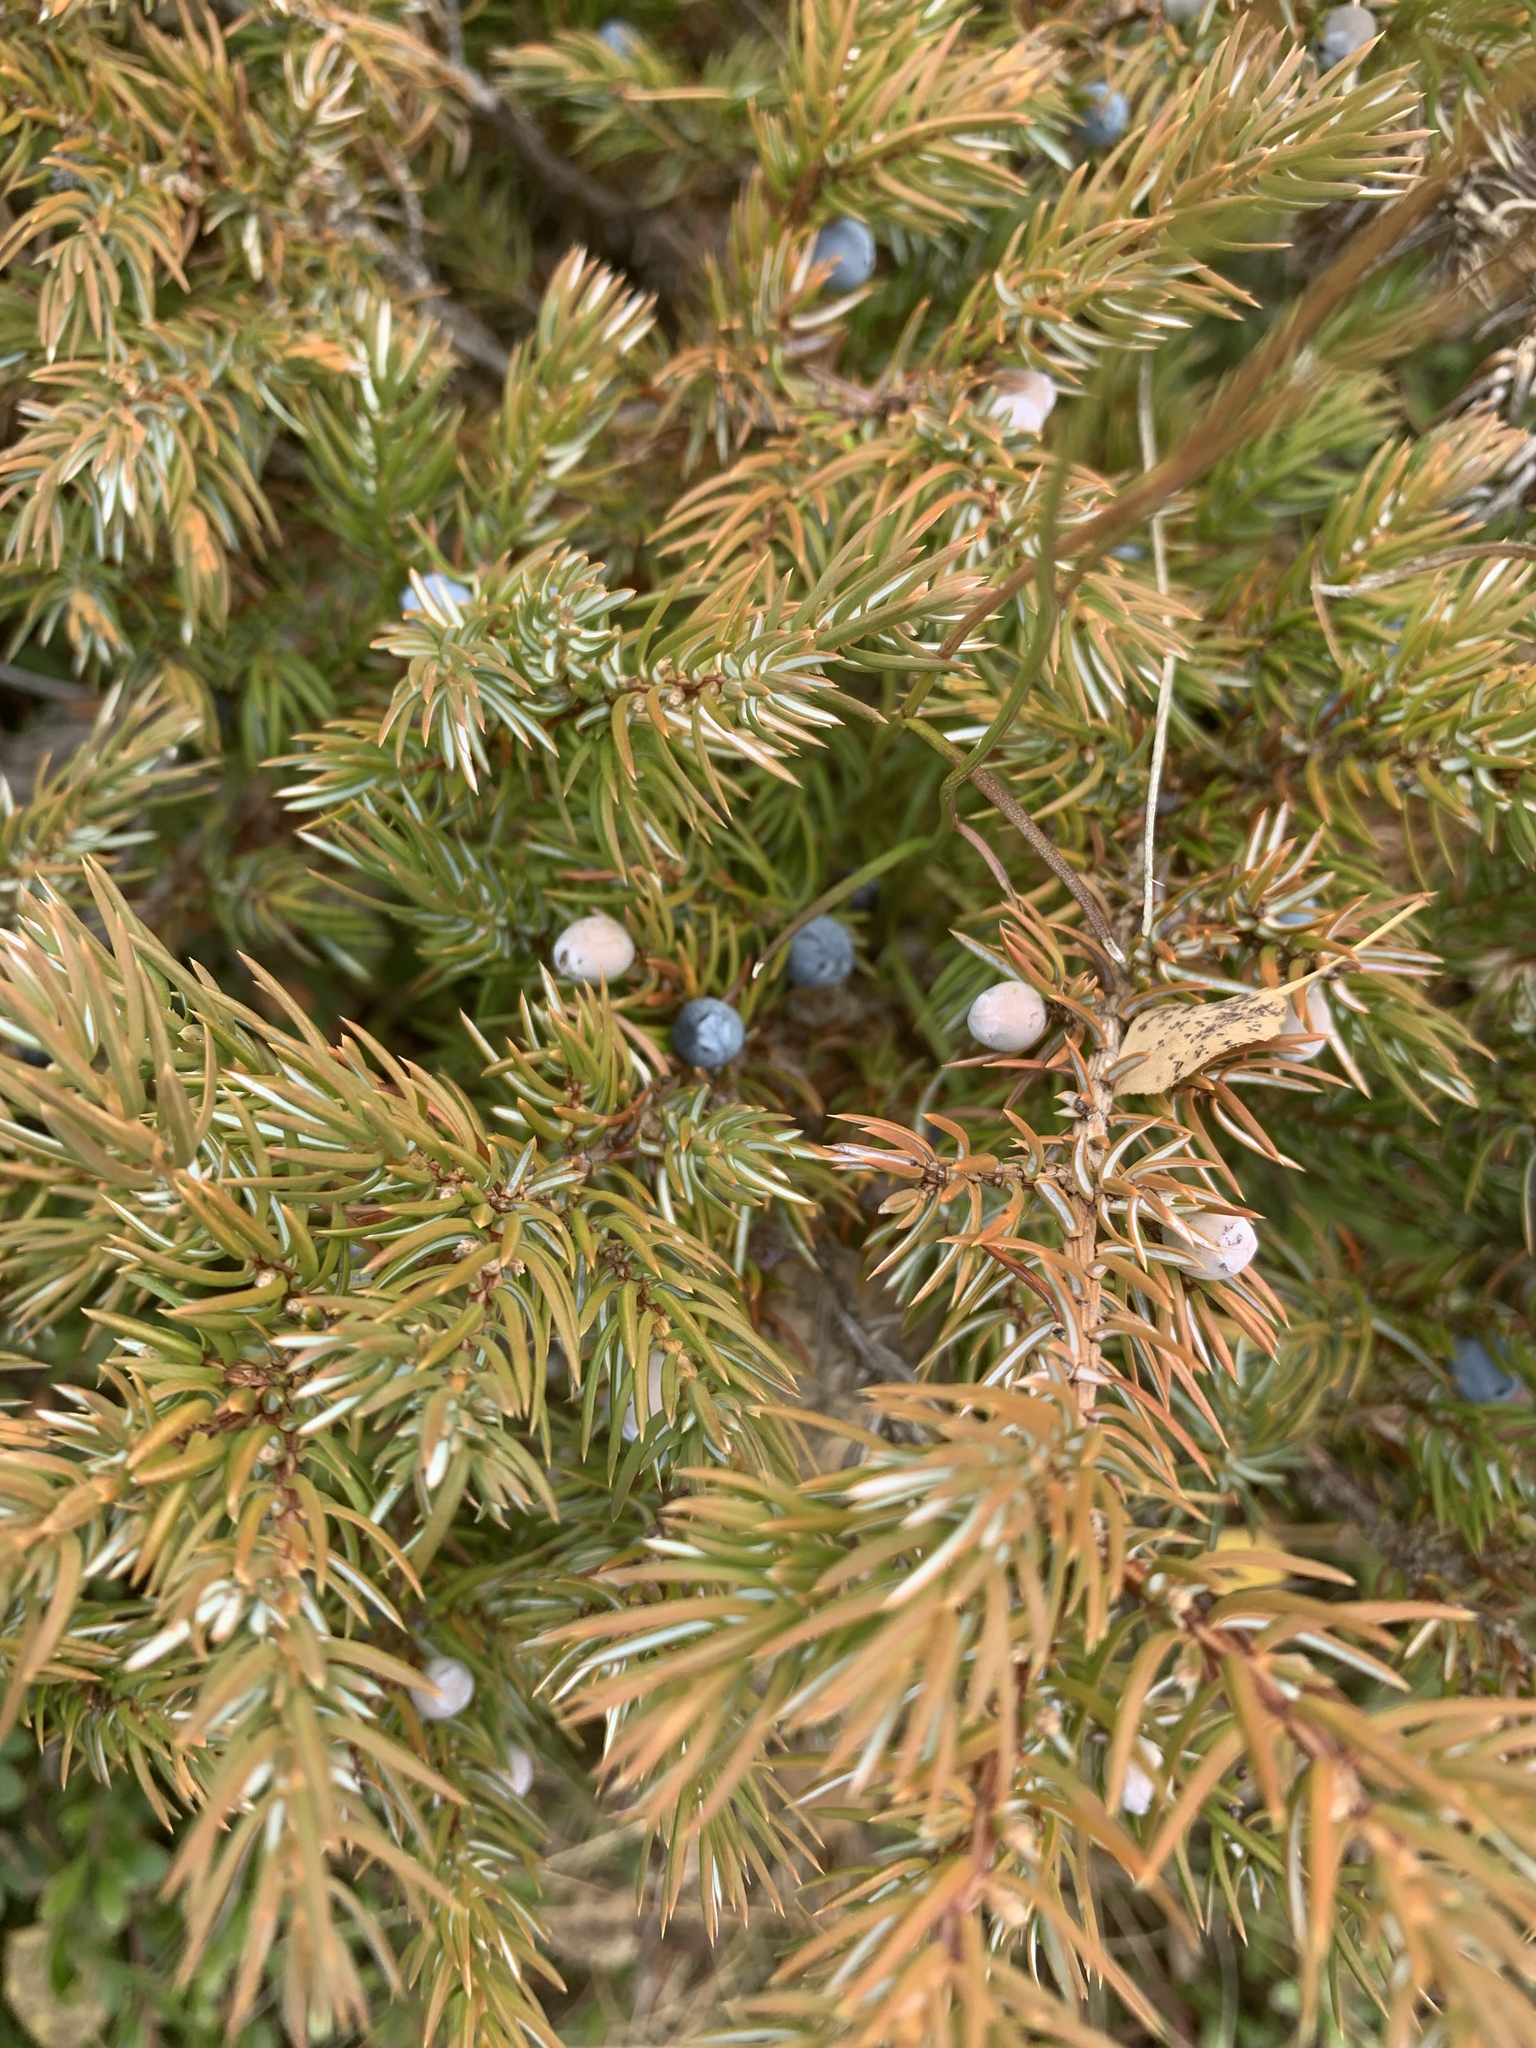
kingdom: Plantae
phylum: Tracheophyta
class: Pinopsida
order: Pinales
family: Cupressaceae
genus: Juniperus
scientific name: Juniperus communis
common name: Common juniper
